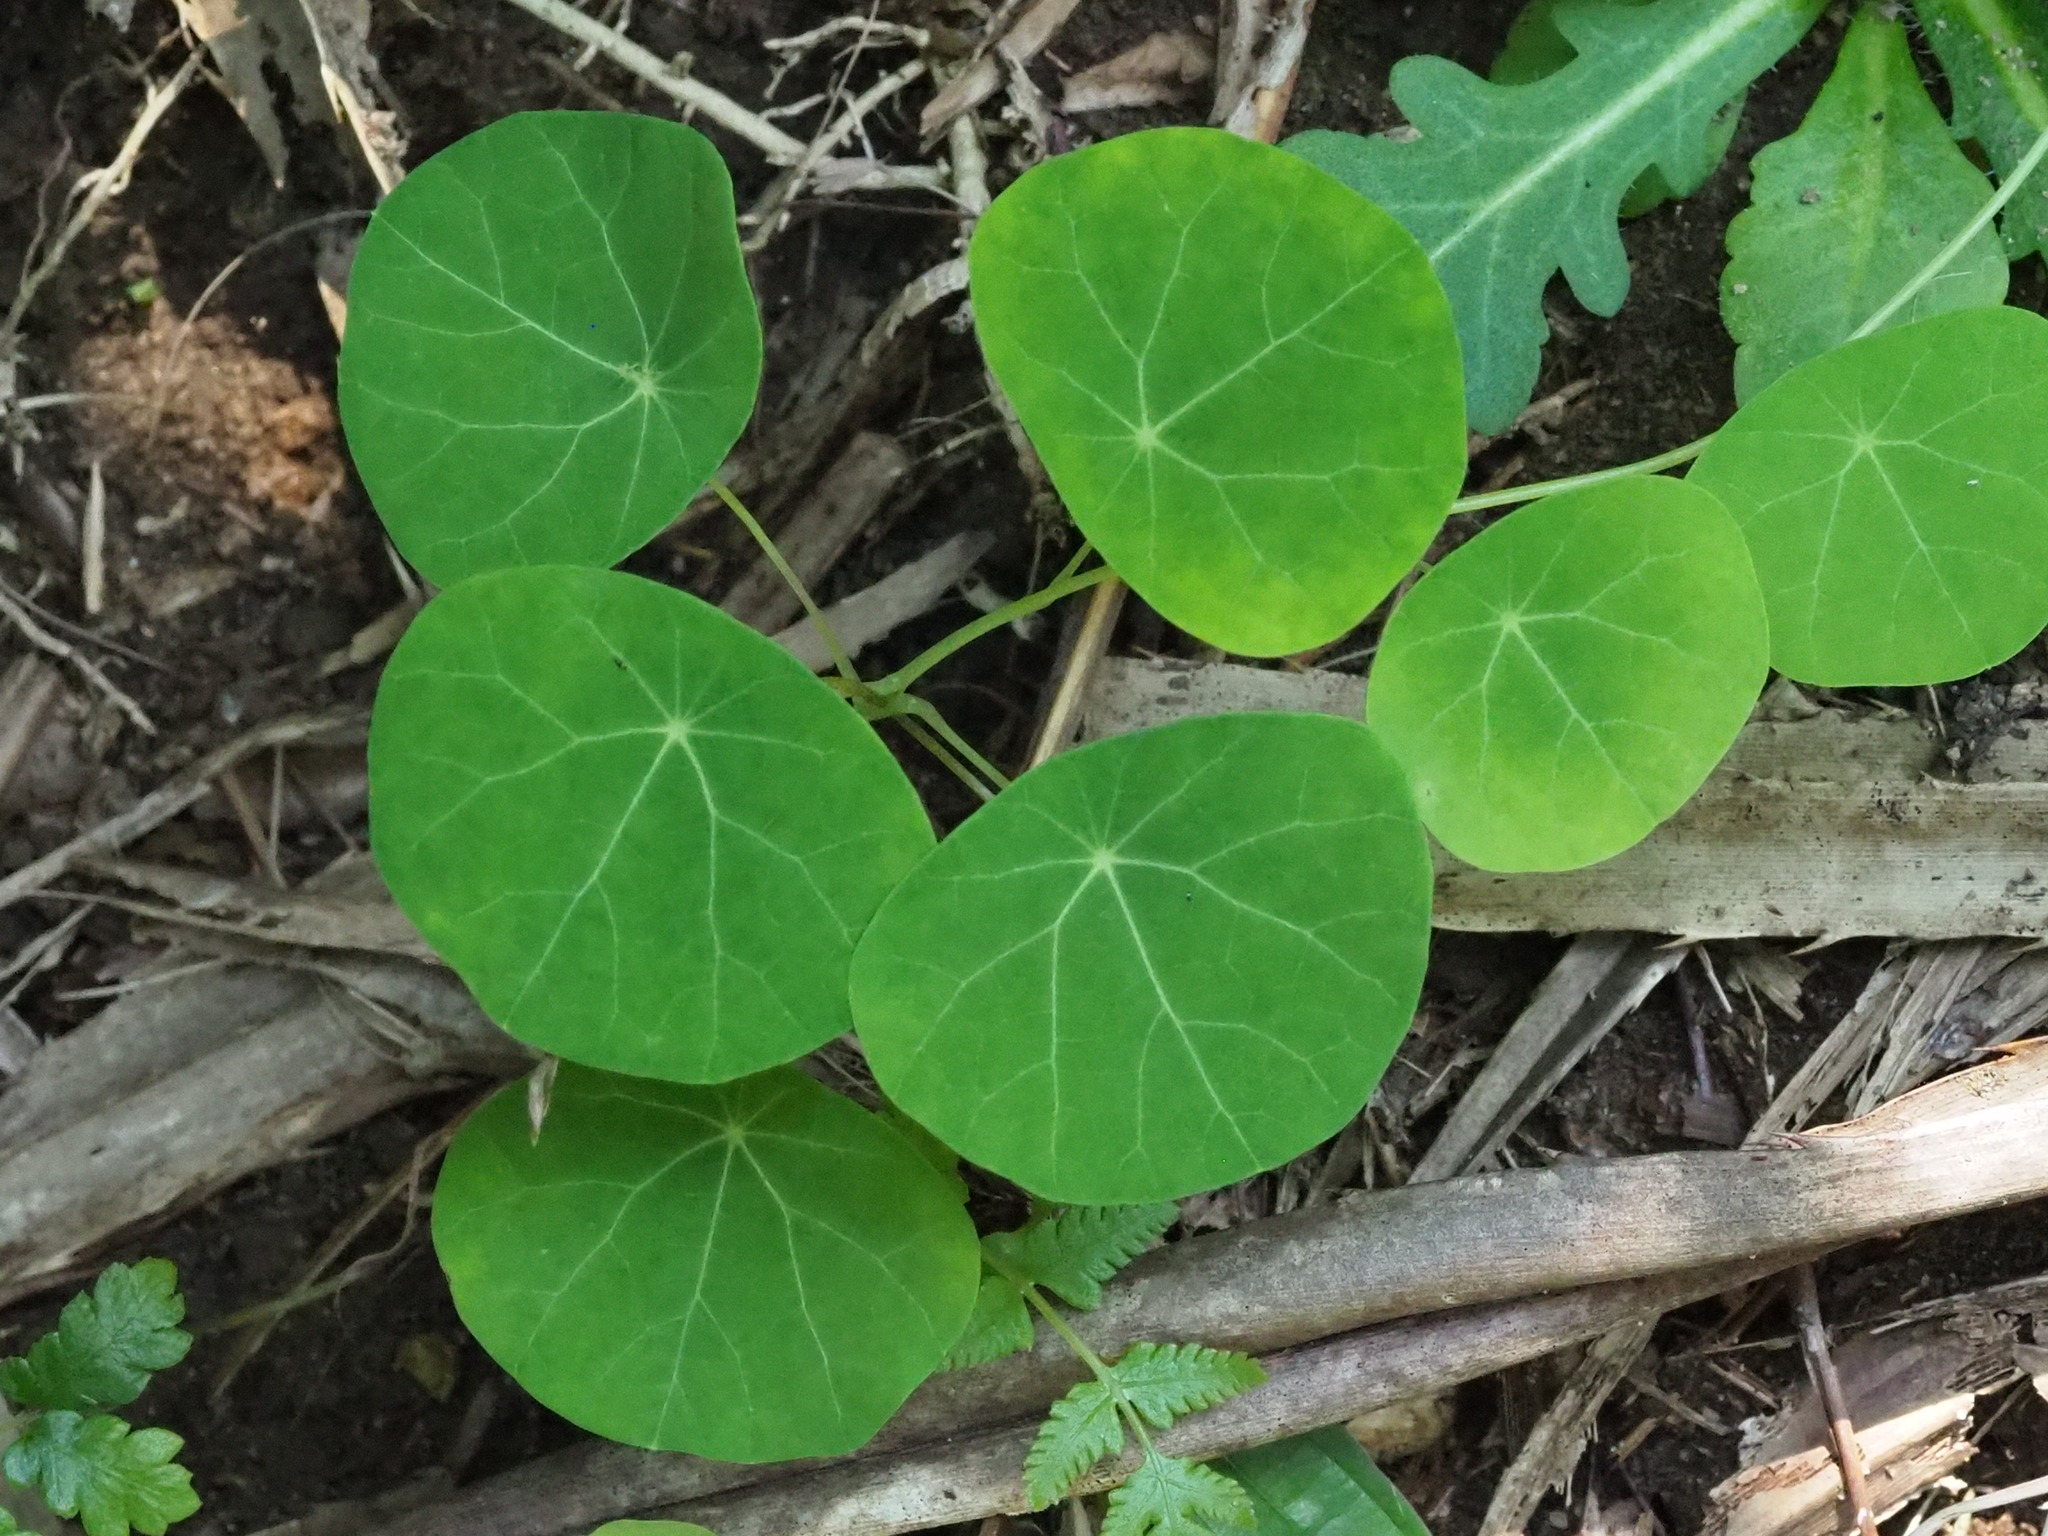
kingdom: Plantae
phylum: Tracheophyta
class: Magnoliopsida
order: Ranunculales
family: Menispermaceae
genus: Stephania
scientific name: Stephania cephalantha
